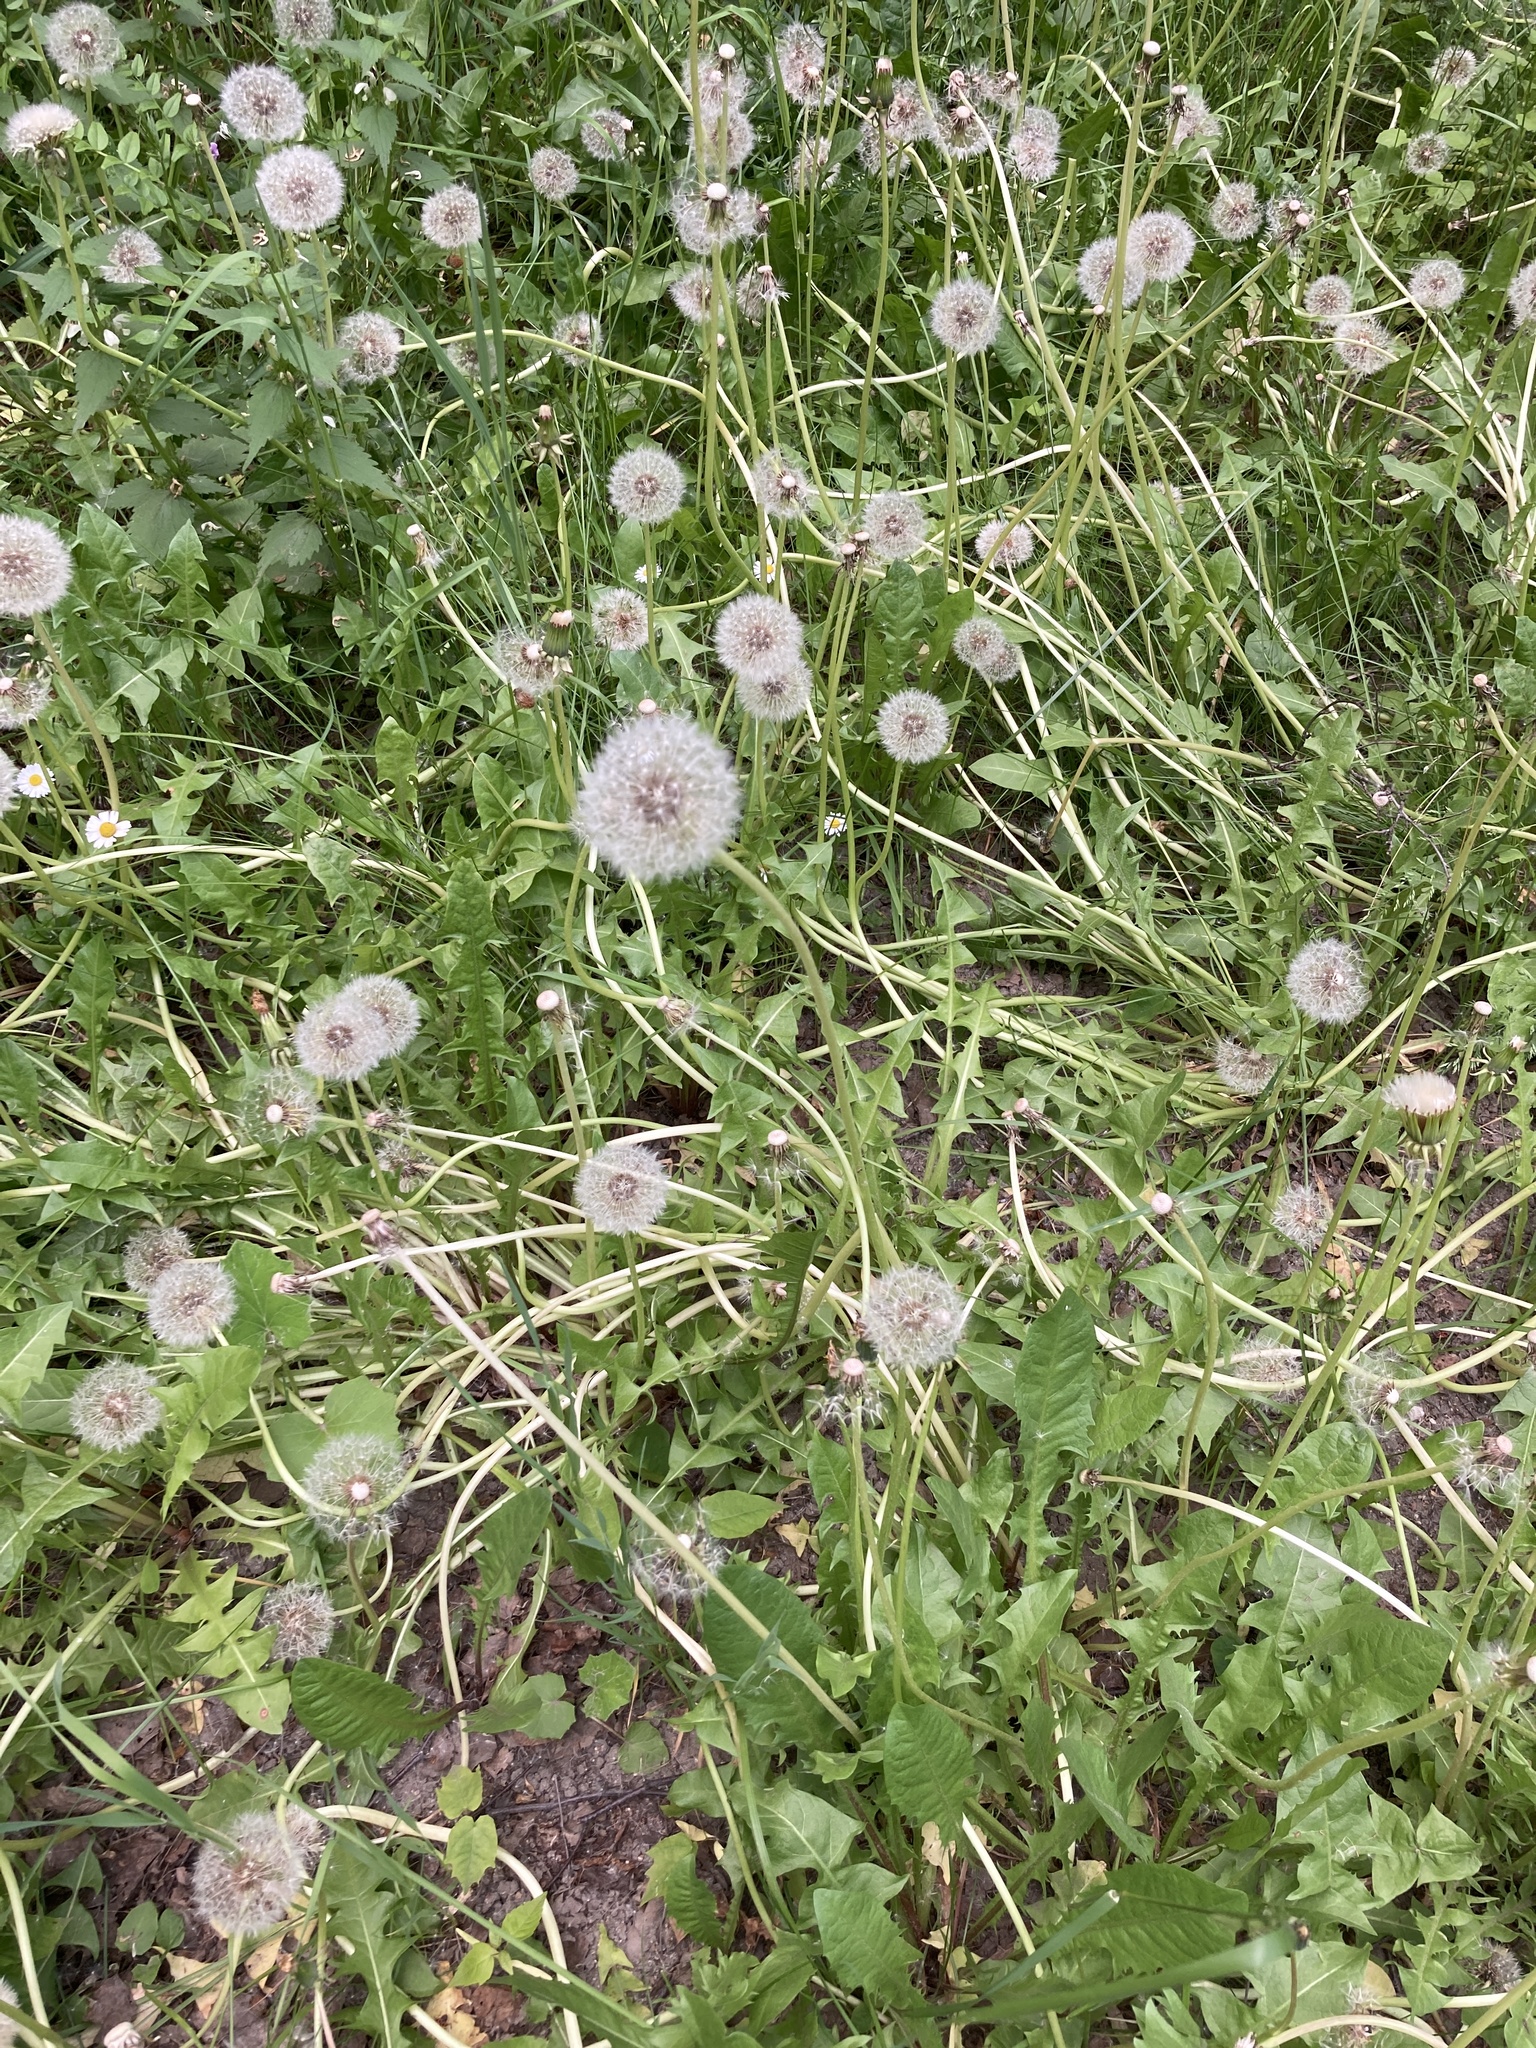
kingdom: Plantae
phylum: Tracheophyta
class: Magnoliopsida
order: Asterales
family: Asteraceae
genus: Taraxacum
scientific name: Taraxacum officinale
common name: Common dandelion
